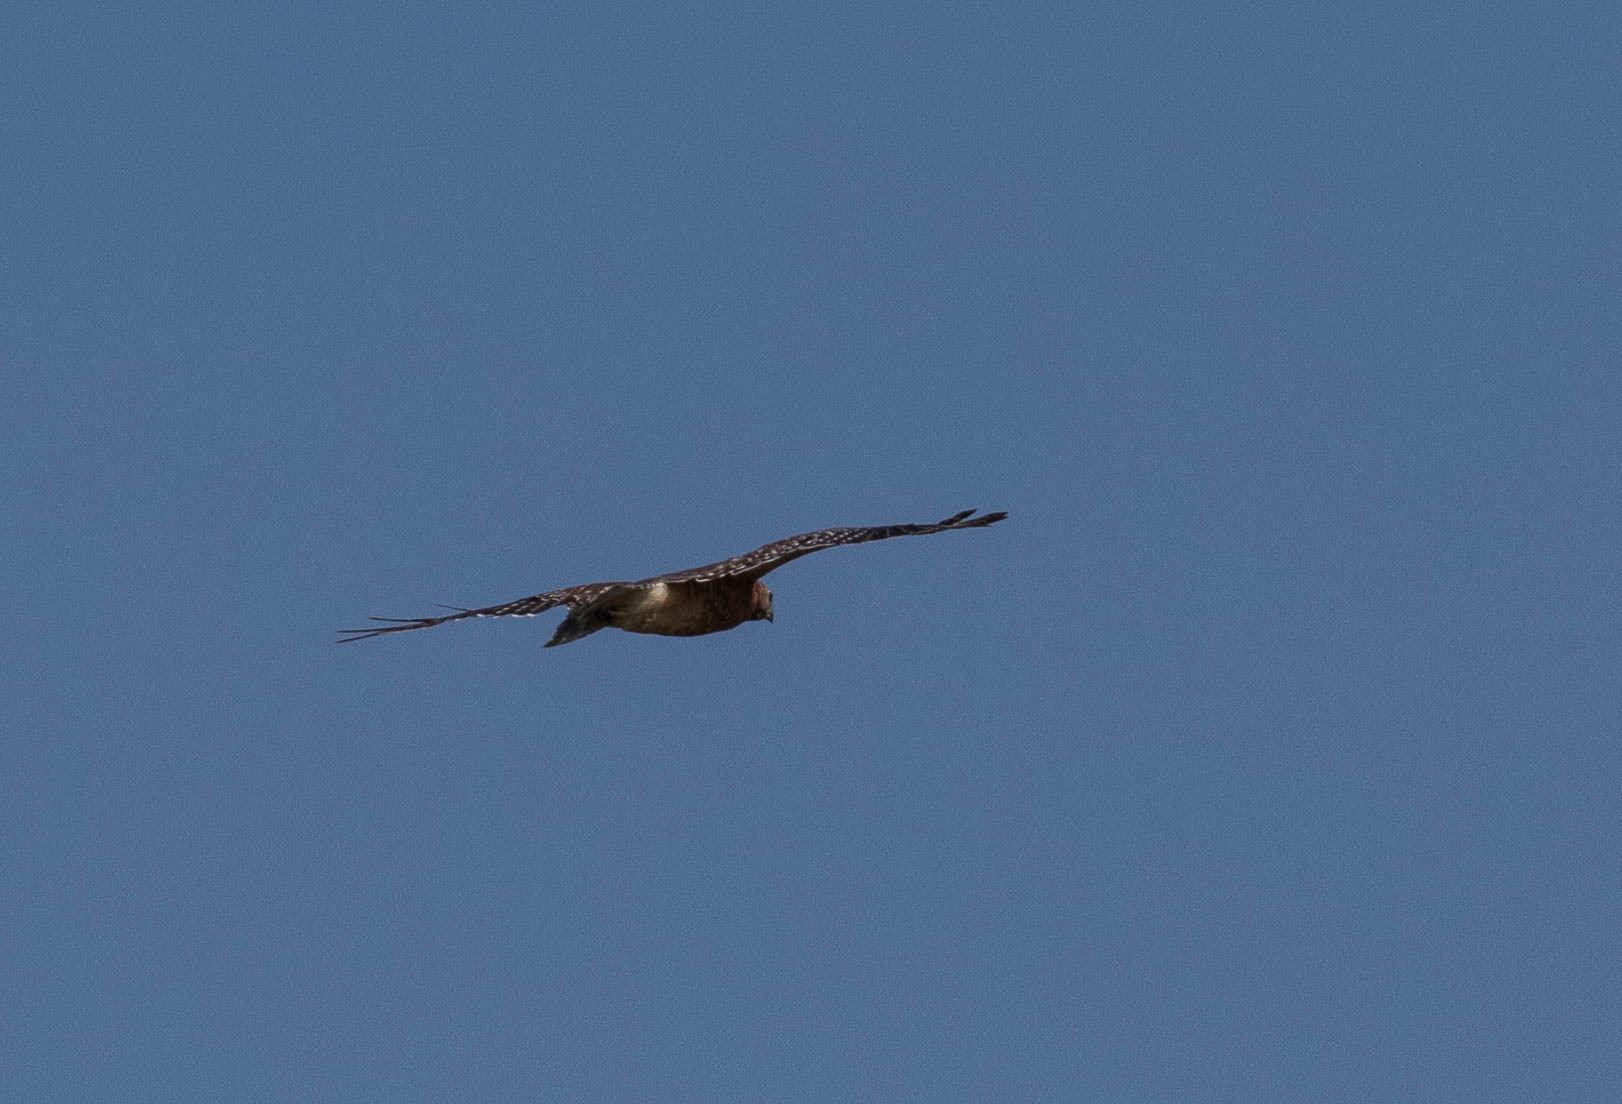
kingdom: Animalia
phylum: Chordata
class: Aves
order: Accipitriformes
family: Accipitridae
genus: Buteo
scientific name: Buteo lineatus
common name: Red-shouldered hawk
